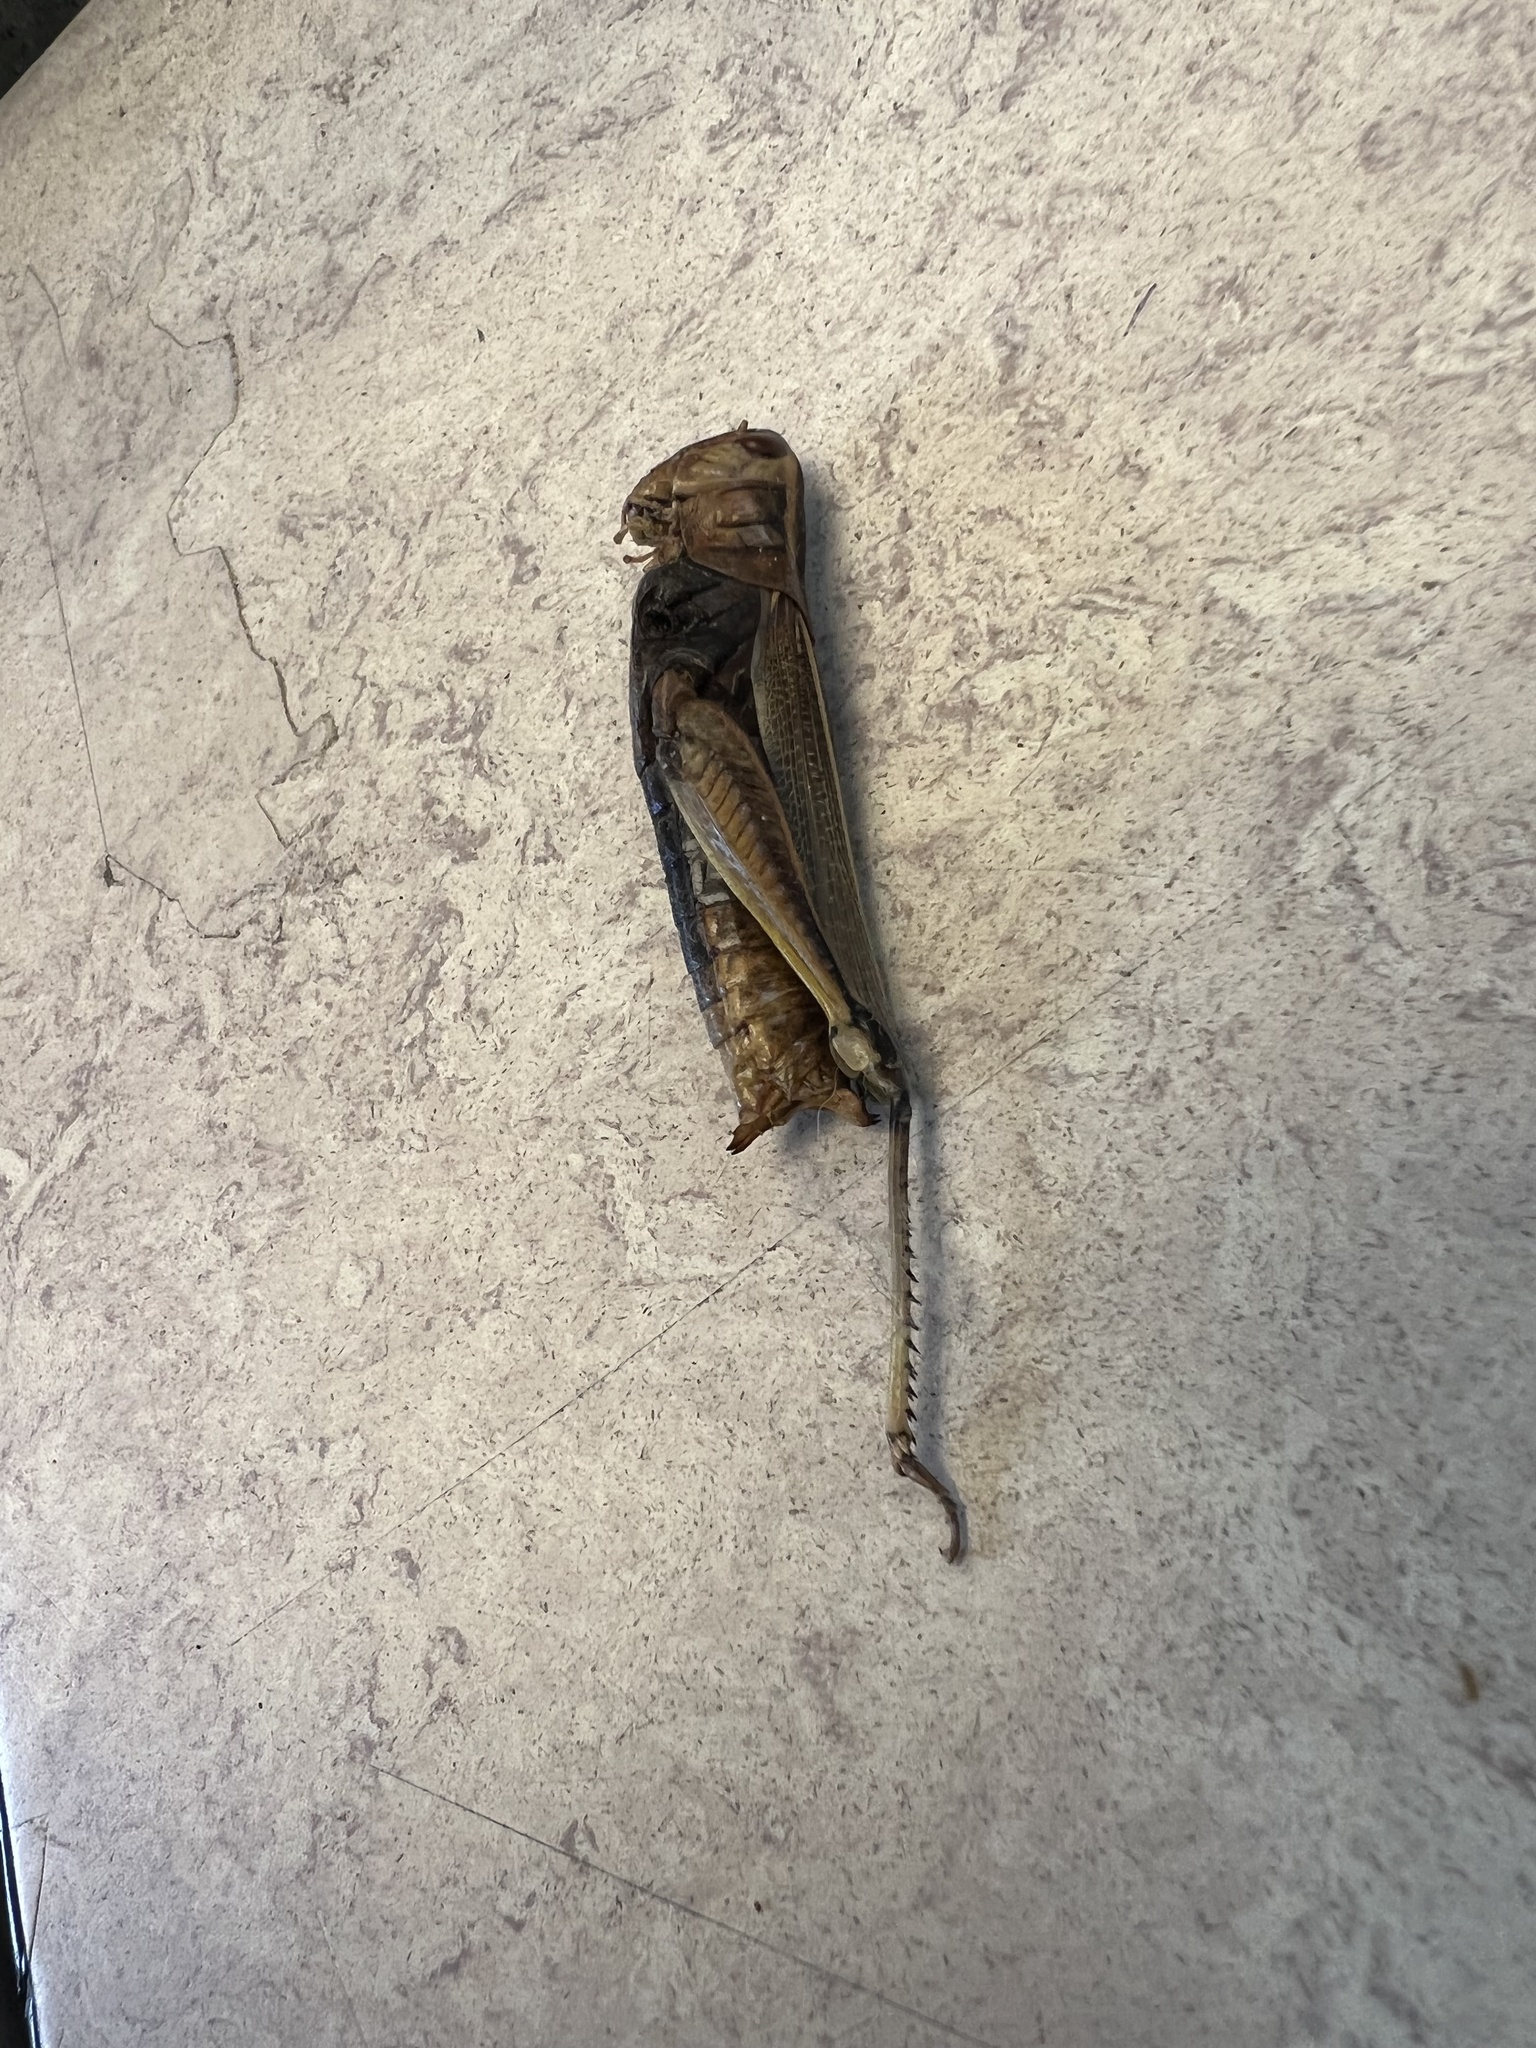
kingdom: Animalia
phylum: Arthropoda
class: Insecta
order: Orthoptera
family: Acrididae
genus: Melanoplus
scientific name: Melanoplus bivittatus
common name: Two-striped grasshopper
